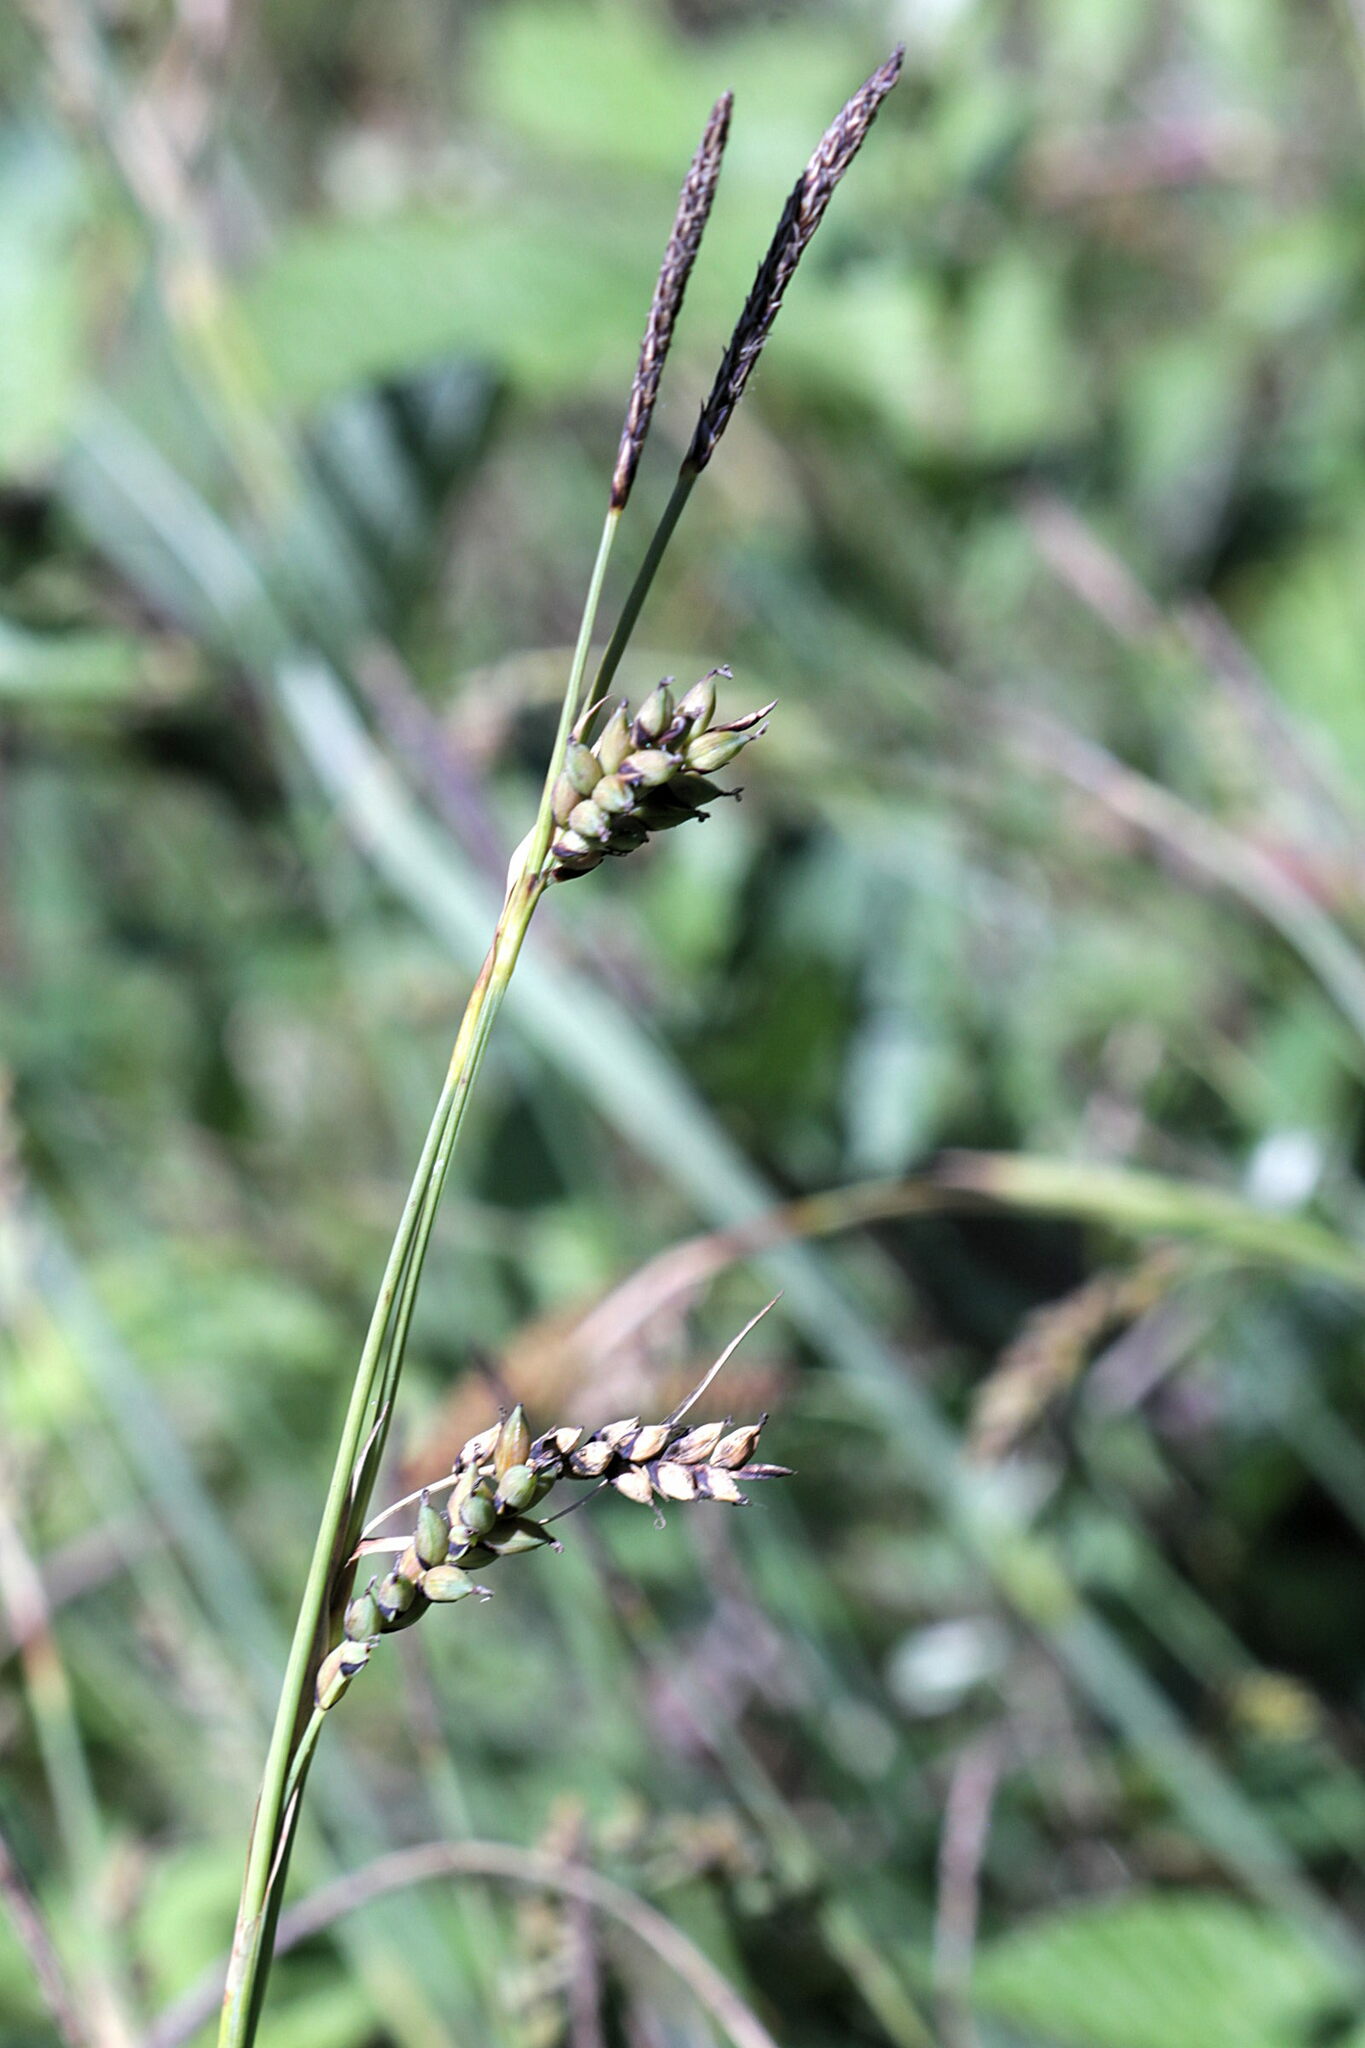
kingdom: Plantae
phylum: Tracheophyta
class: Liliopsida
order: Poales
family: Cyperaceae
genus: Carex
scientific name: Carex panicea
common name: Carnation sedge
